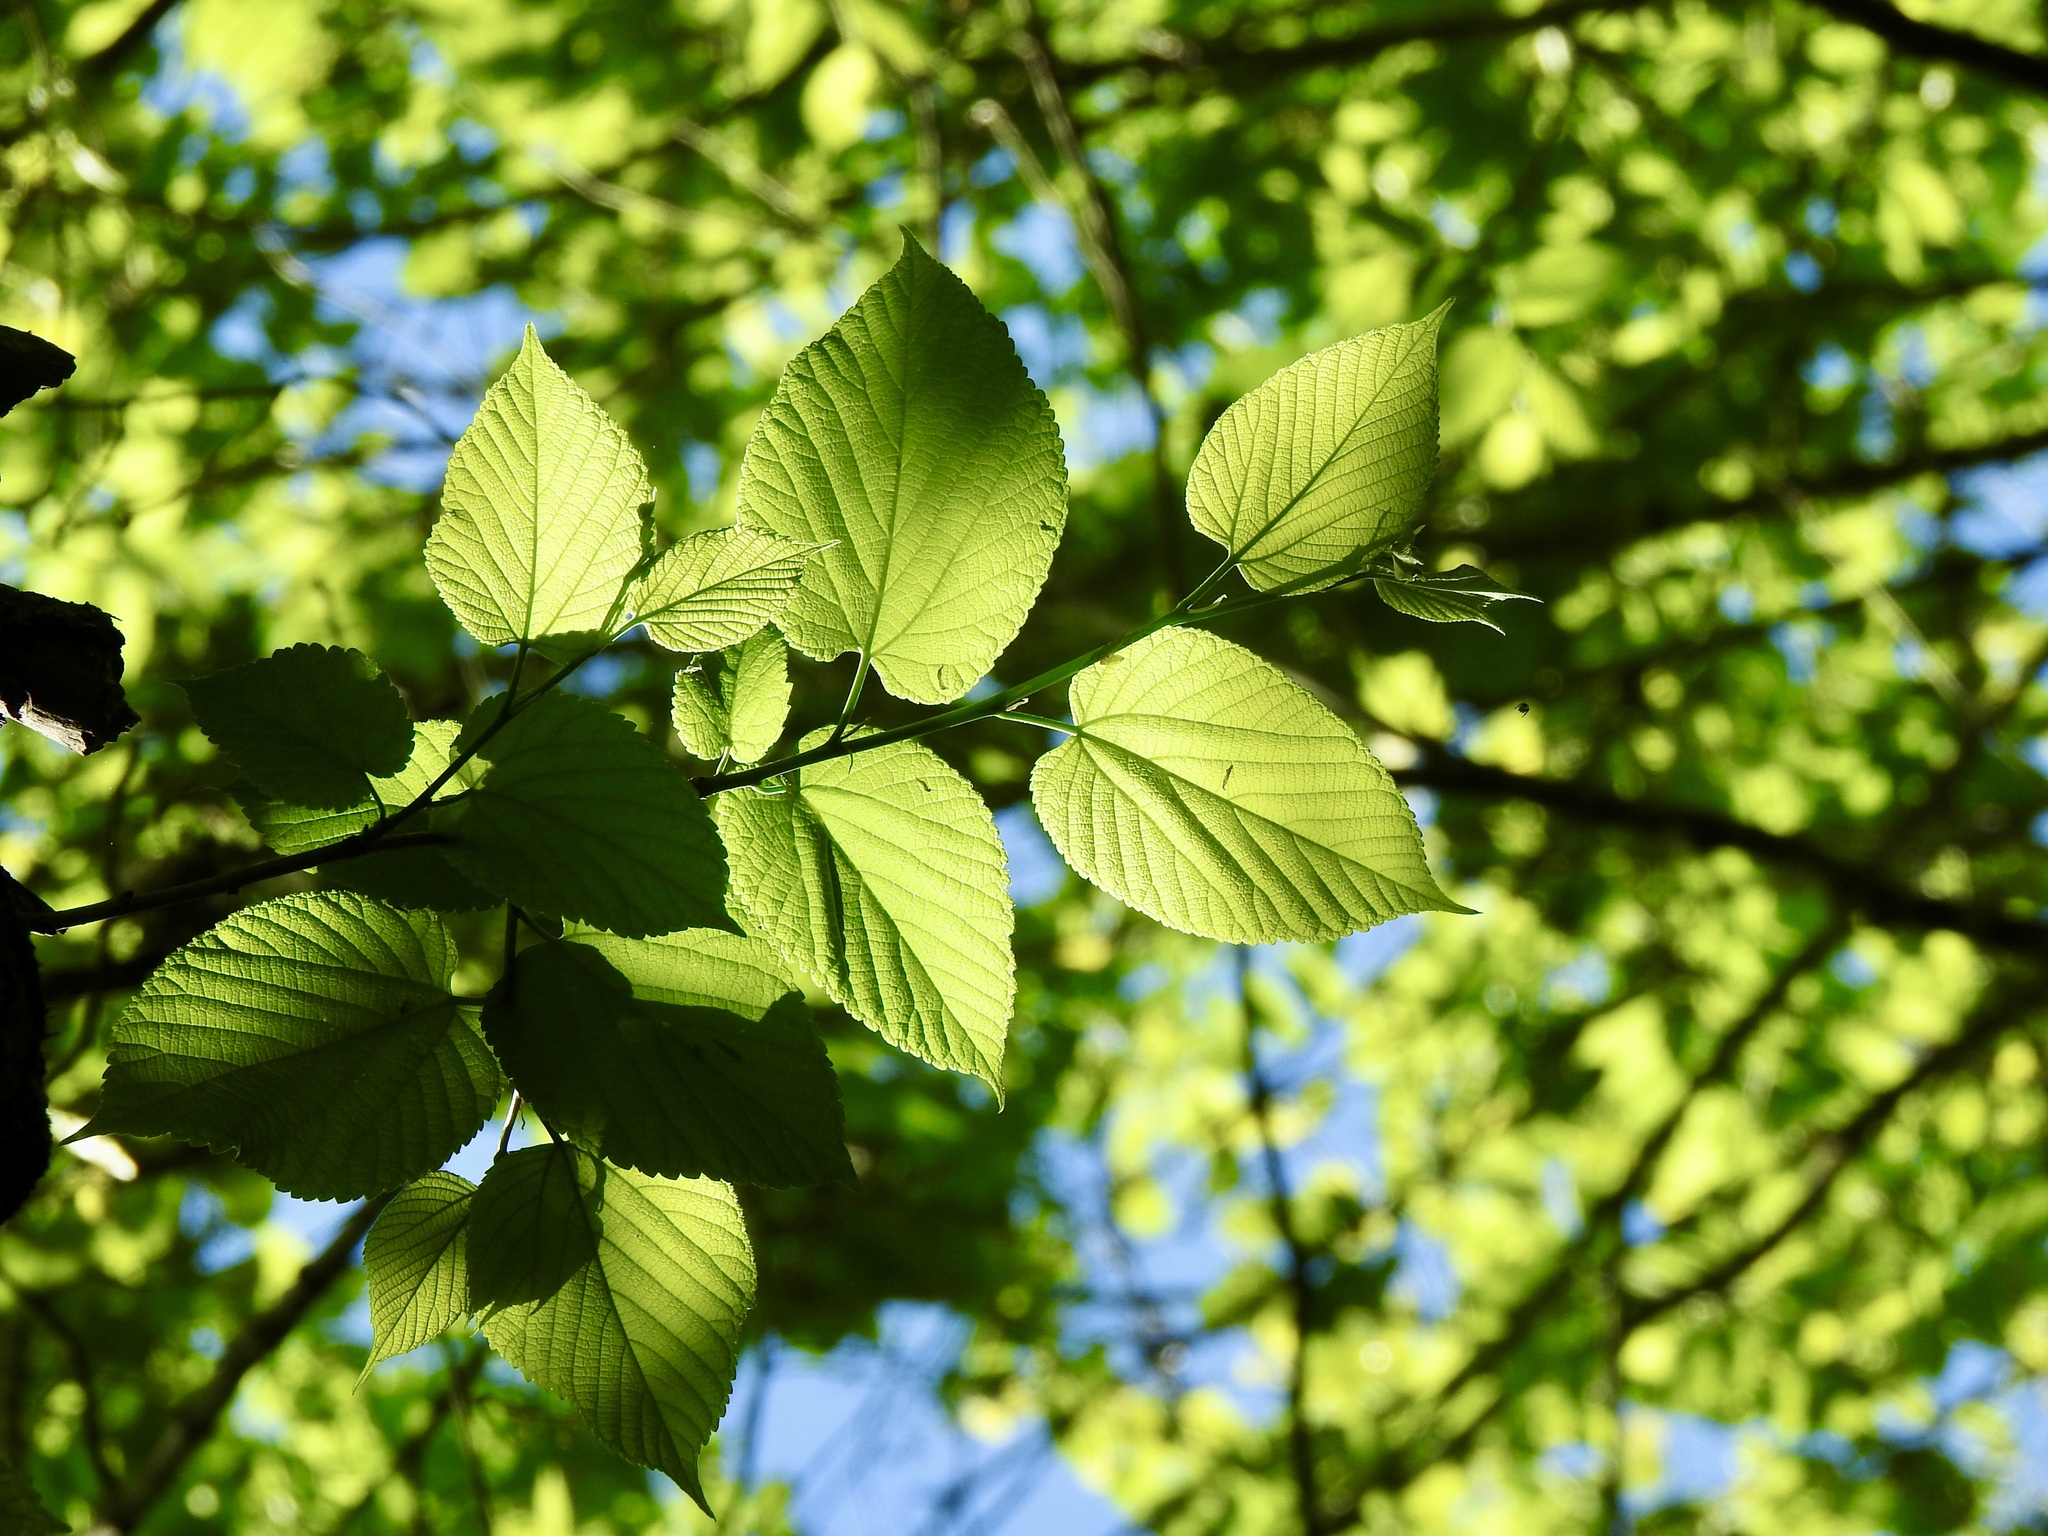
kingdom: Plantae
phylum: Tracheophyta
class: Magnoliopsida
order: Malvales
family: Malvaceae
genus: Tilia
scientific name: Tilia americana
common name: Basswood
